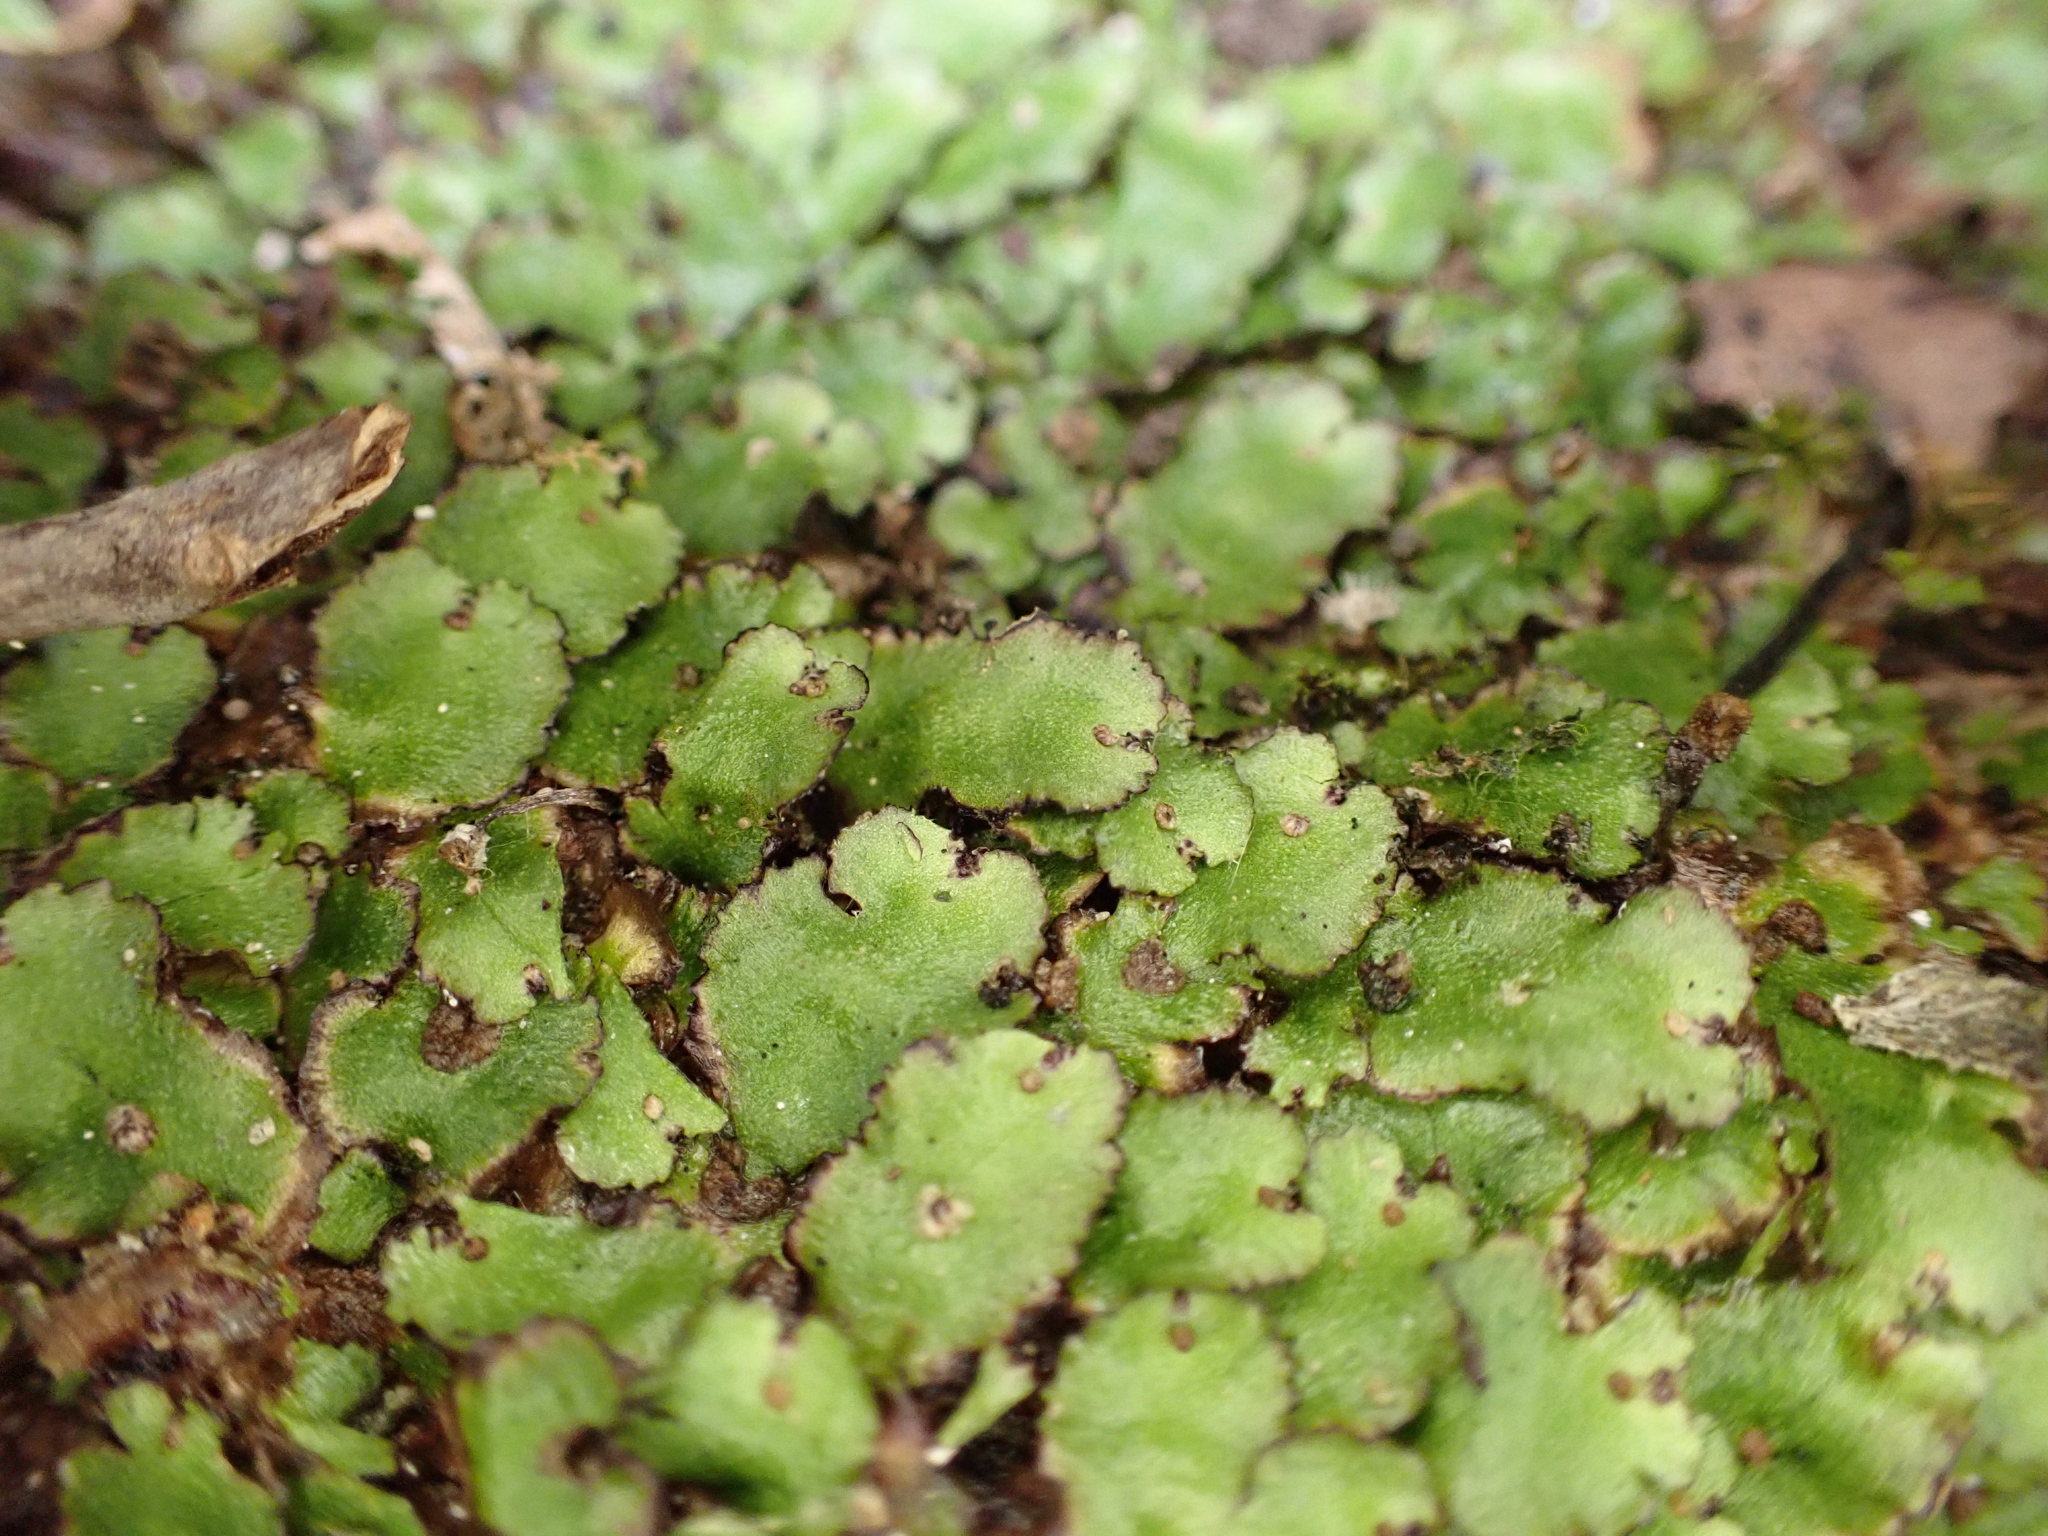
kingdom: Plantae
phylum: Marchantiophyta
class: Marchantiopsida
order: Marchantiales
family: Aytoniaceae
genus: Reboulia
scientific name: Reboulia hemisphaerica
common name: Purple-margined liverwort
